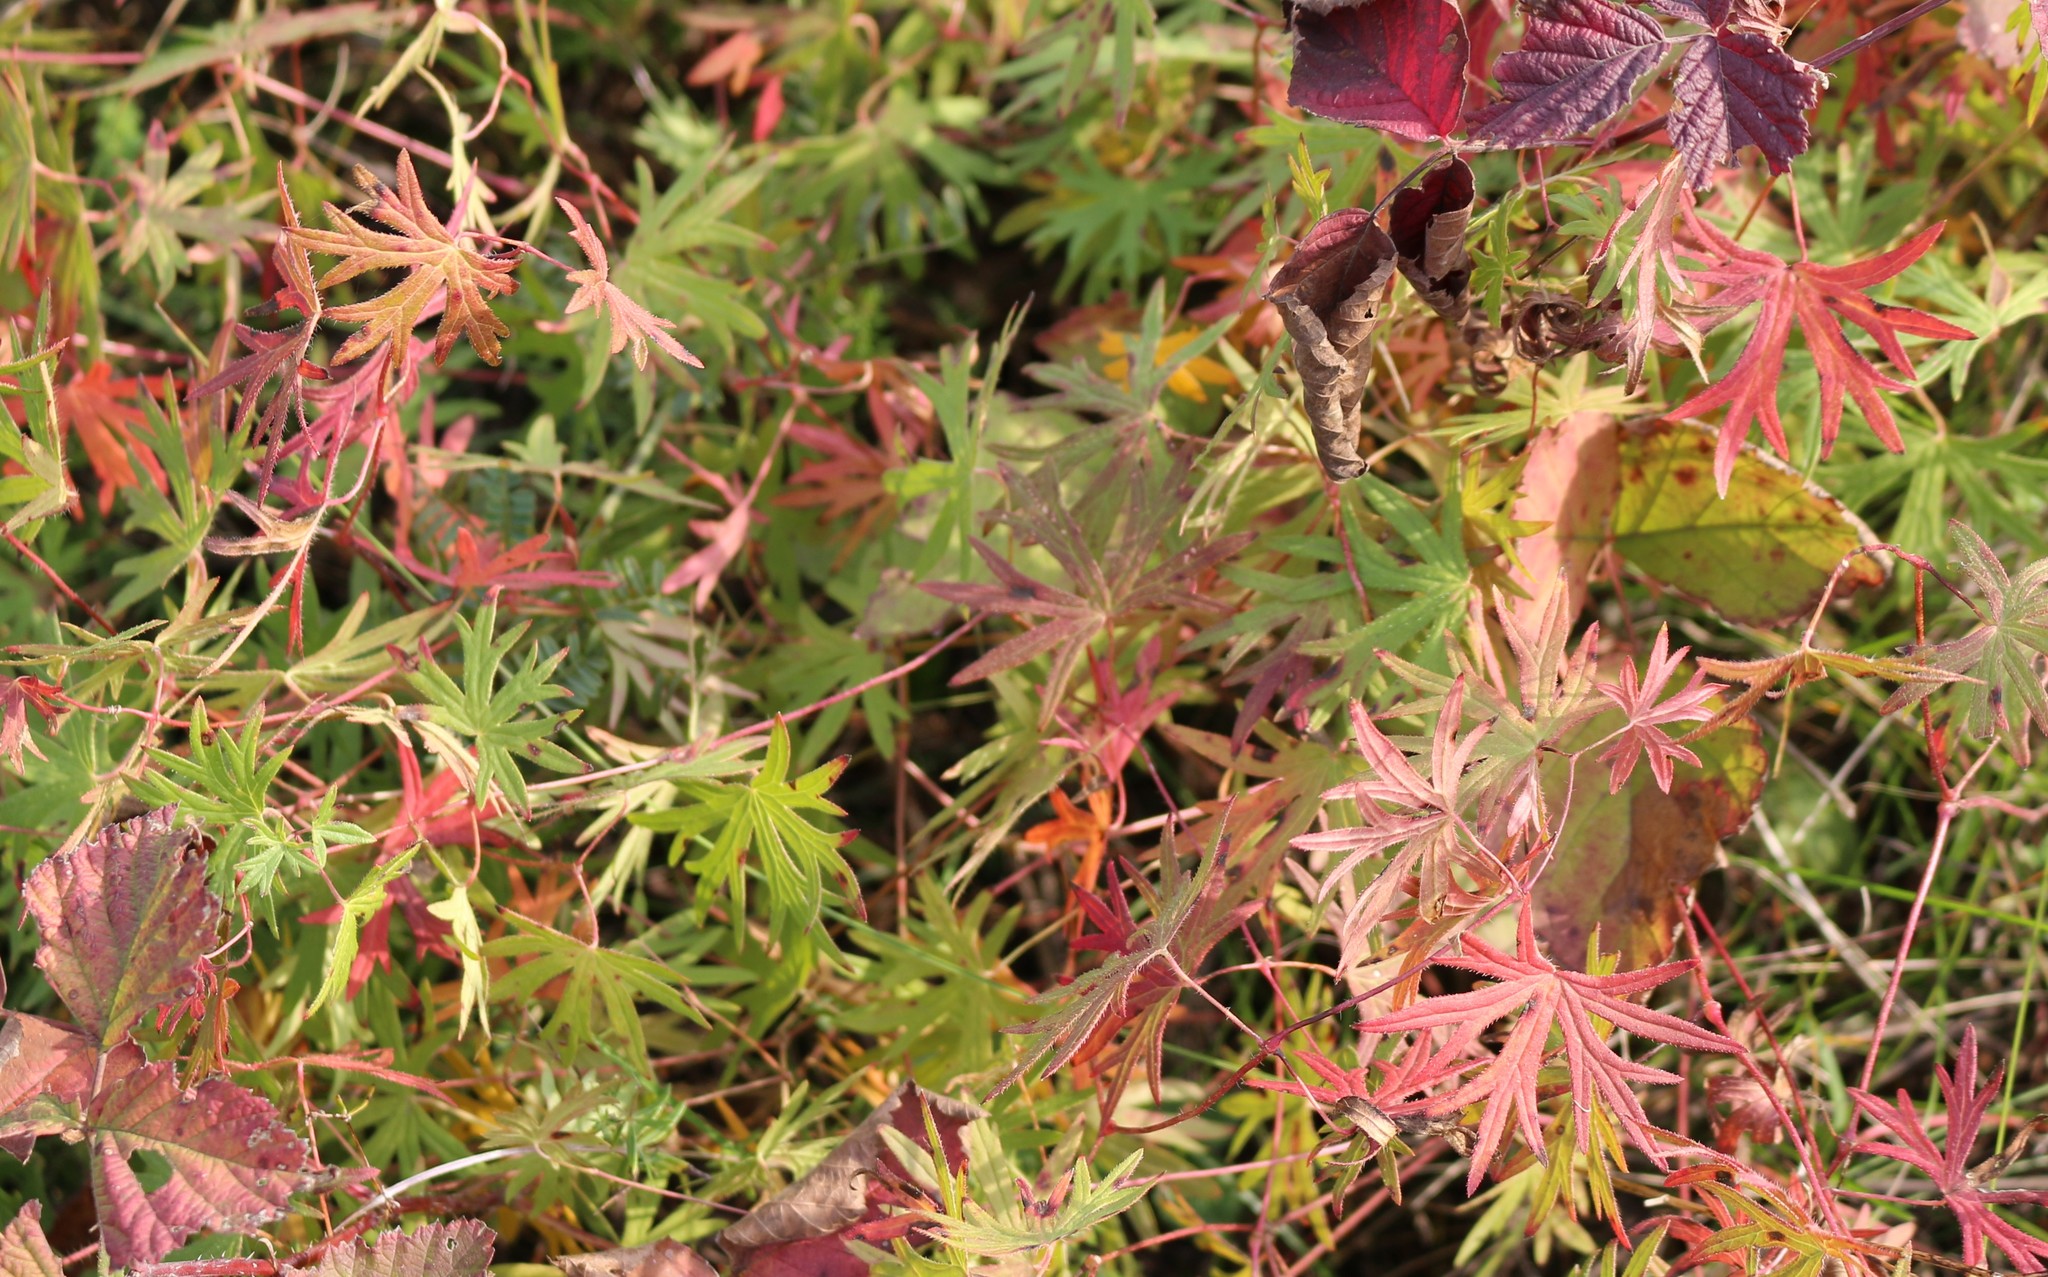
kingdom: Plantae
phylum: Tracheophyta
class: Magnoliopsida
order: Geraniales
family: Geraniaceae
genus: Geranium
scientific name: Geranium sanguineum
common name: Bloody crane's-bill
